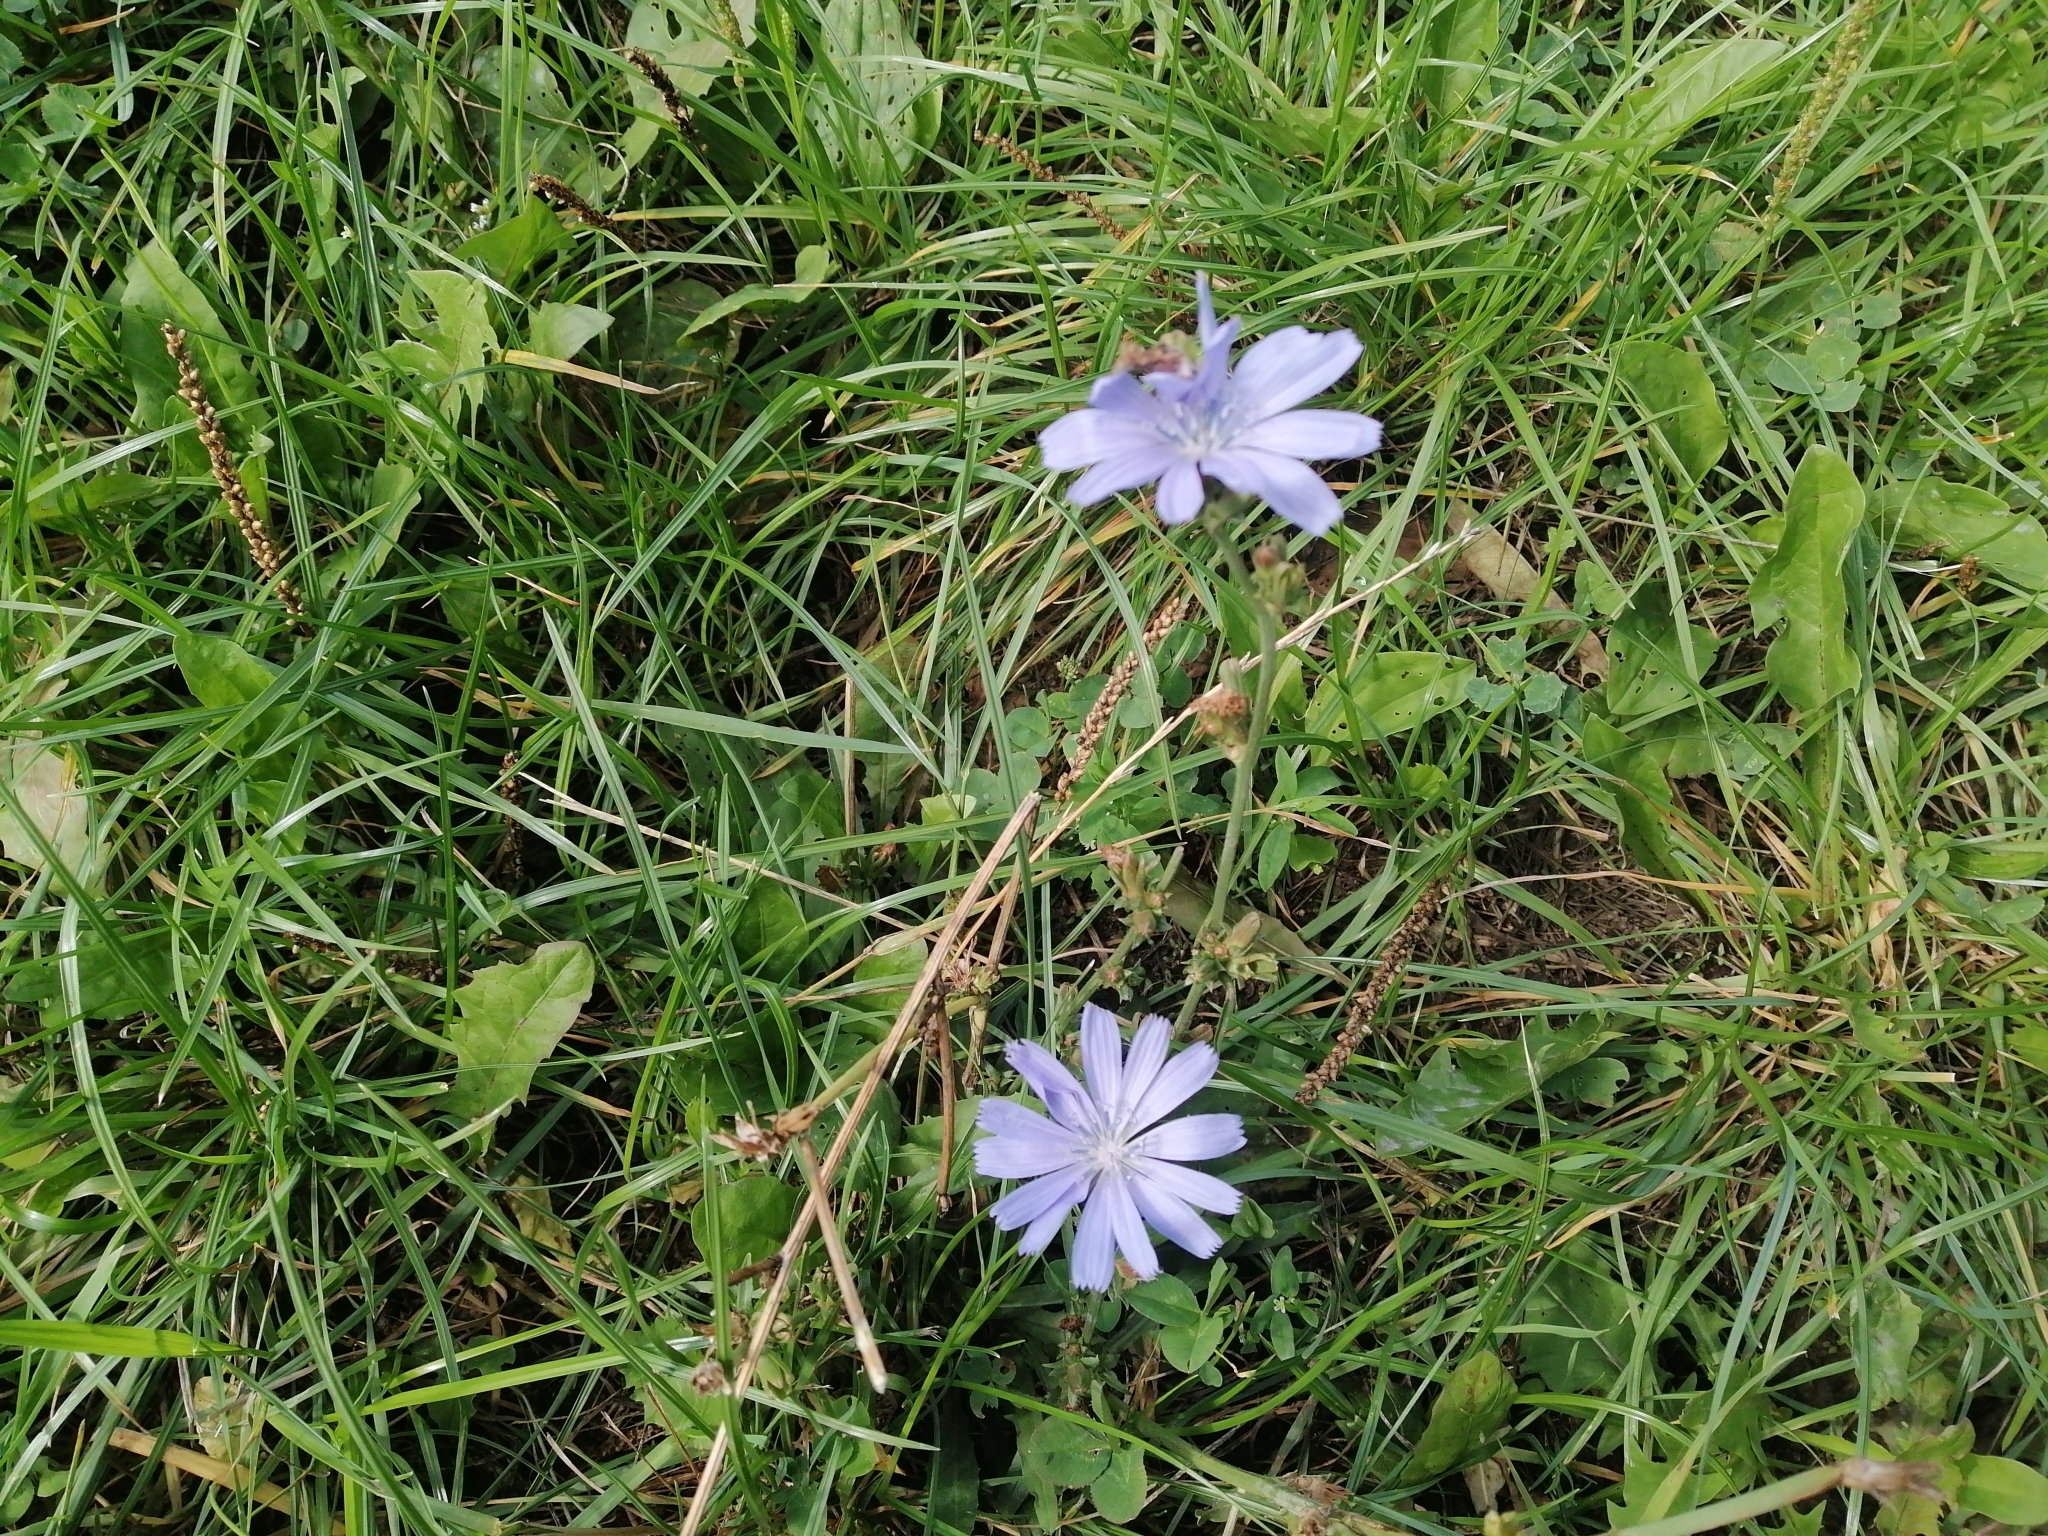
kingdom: Plantae
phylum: Tracheophyta
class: Magnoliopsida
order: Asterales
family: Asteraceae
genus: Cichorium
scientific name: Cichorium intybus
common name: Chicory
